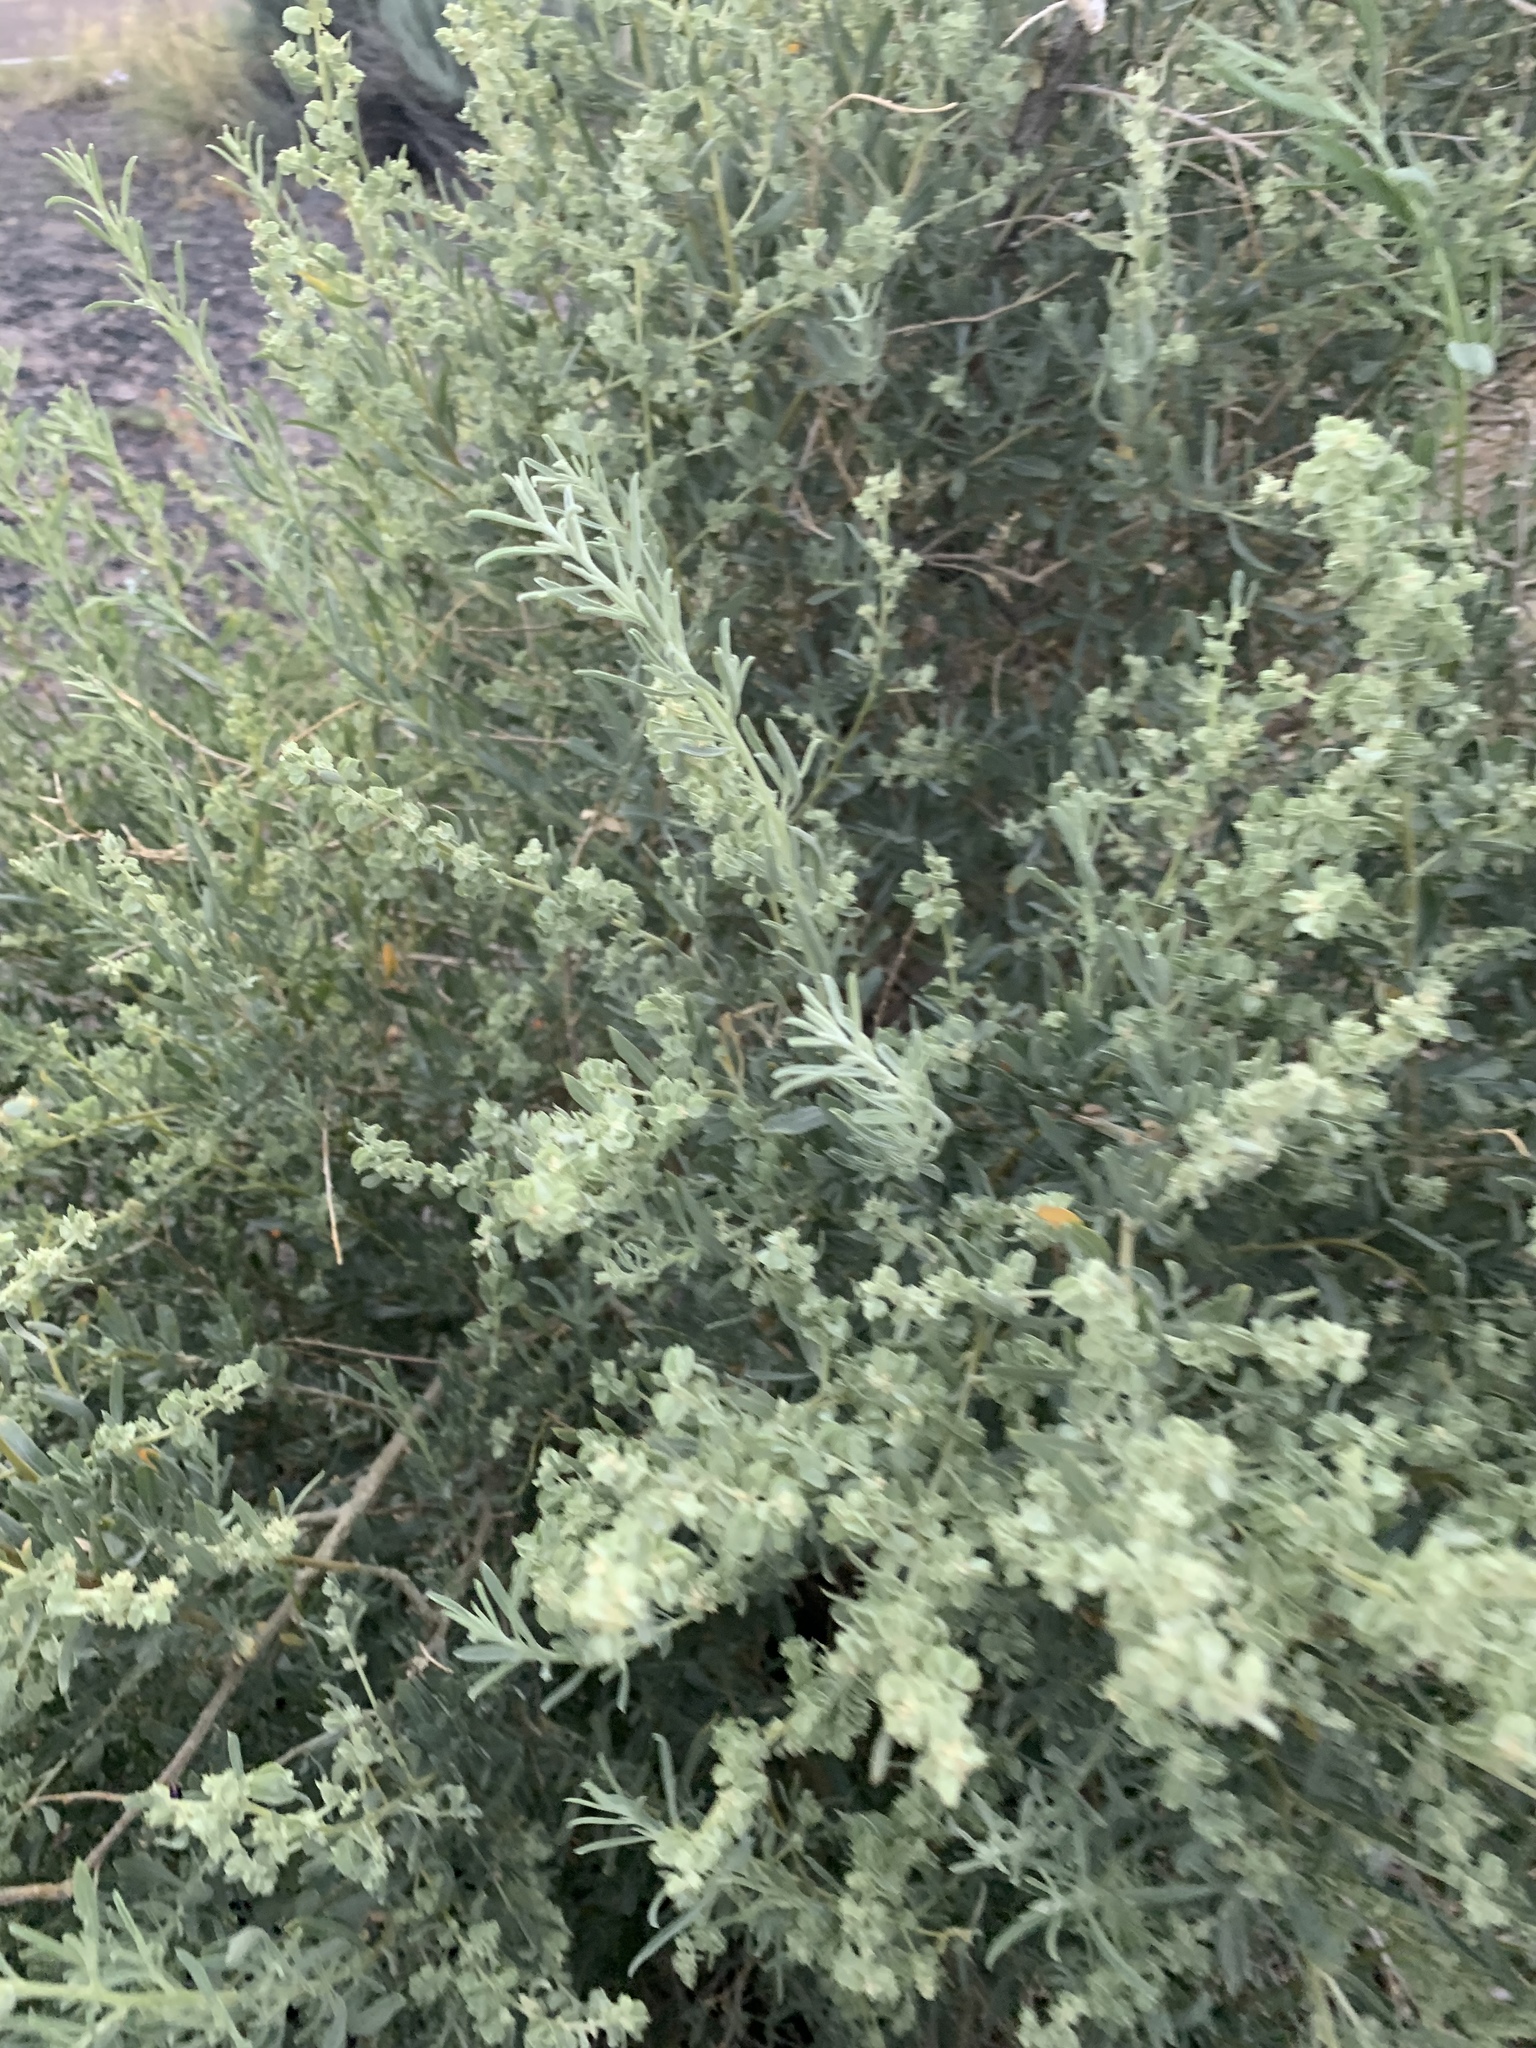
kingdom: Plantae
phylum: Tracheophyta
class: Magnoliopsida
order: Caryophyllales
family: Amaranthaceae
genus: Atriplex
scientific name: Atriplex canescens
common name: Four-wing saltbush
